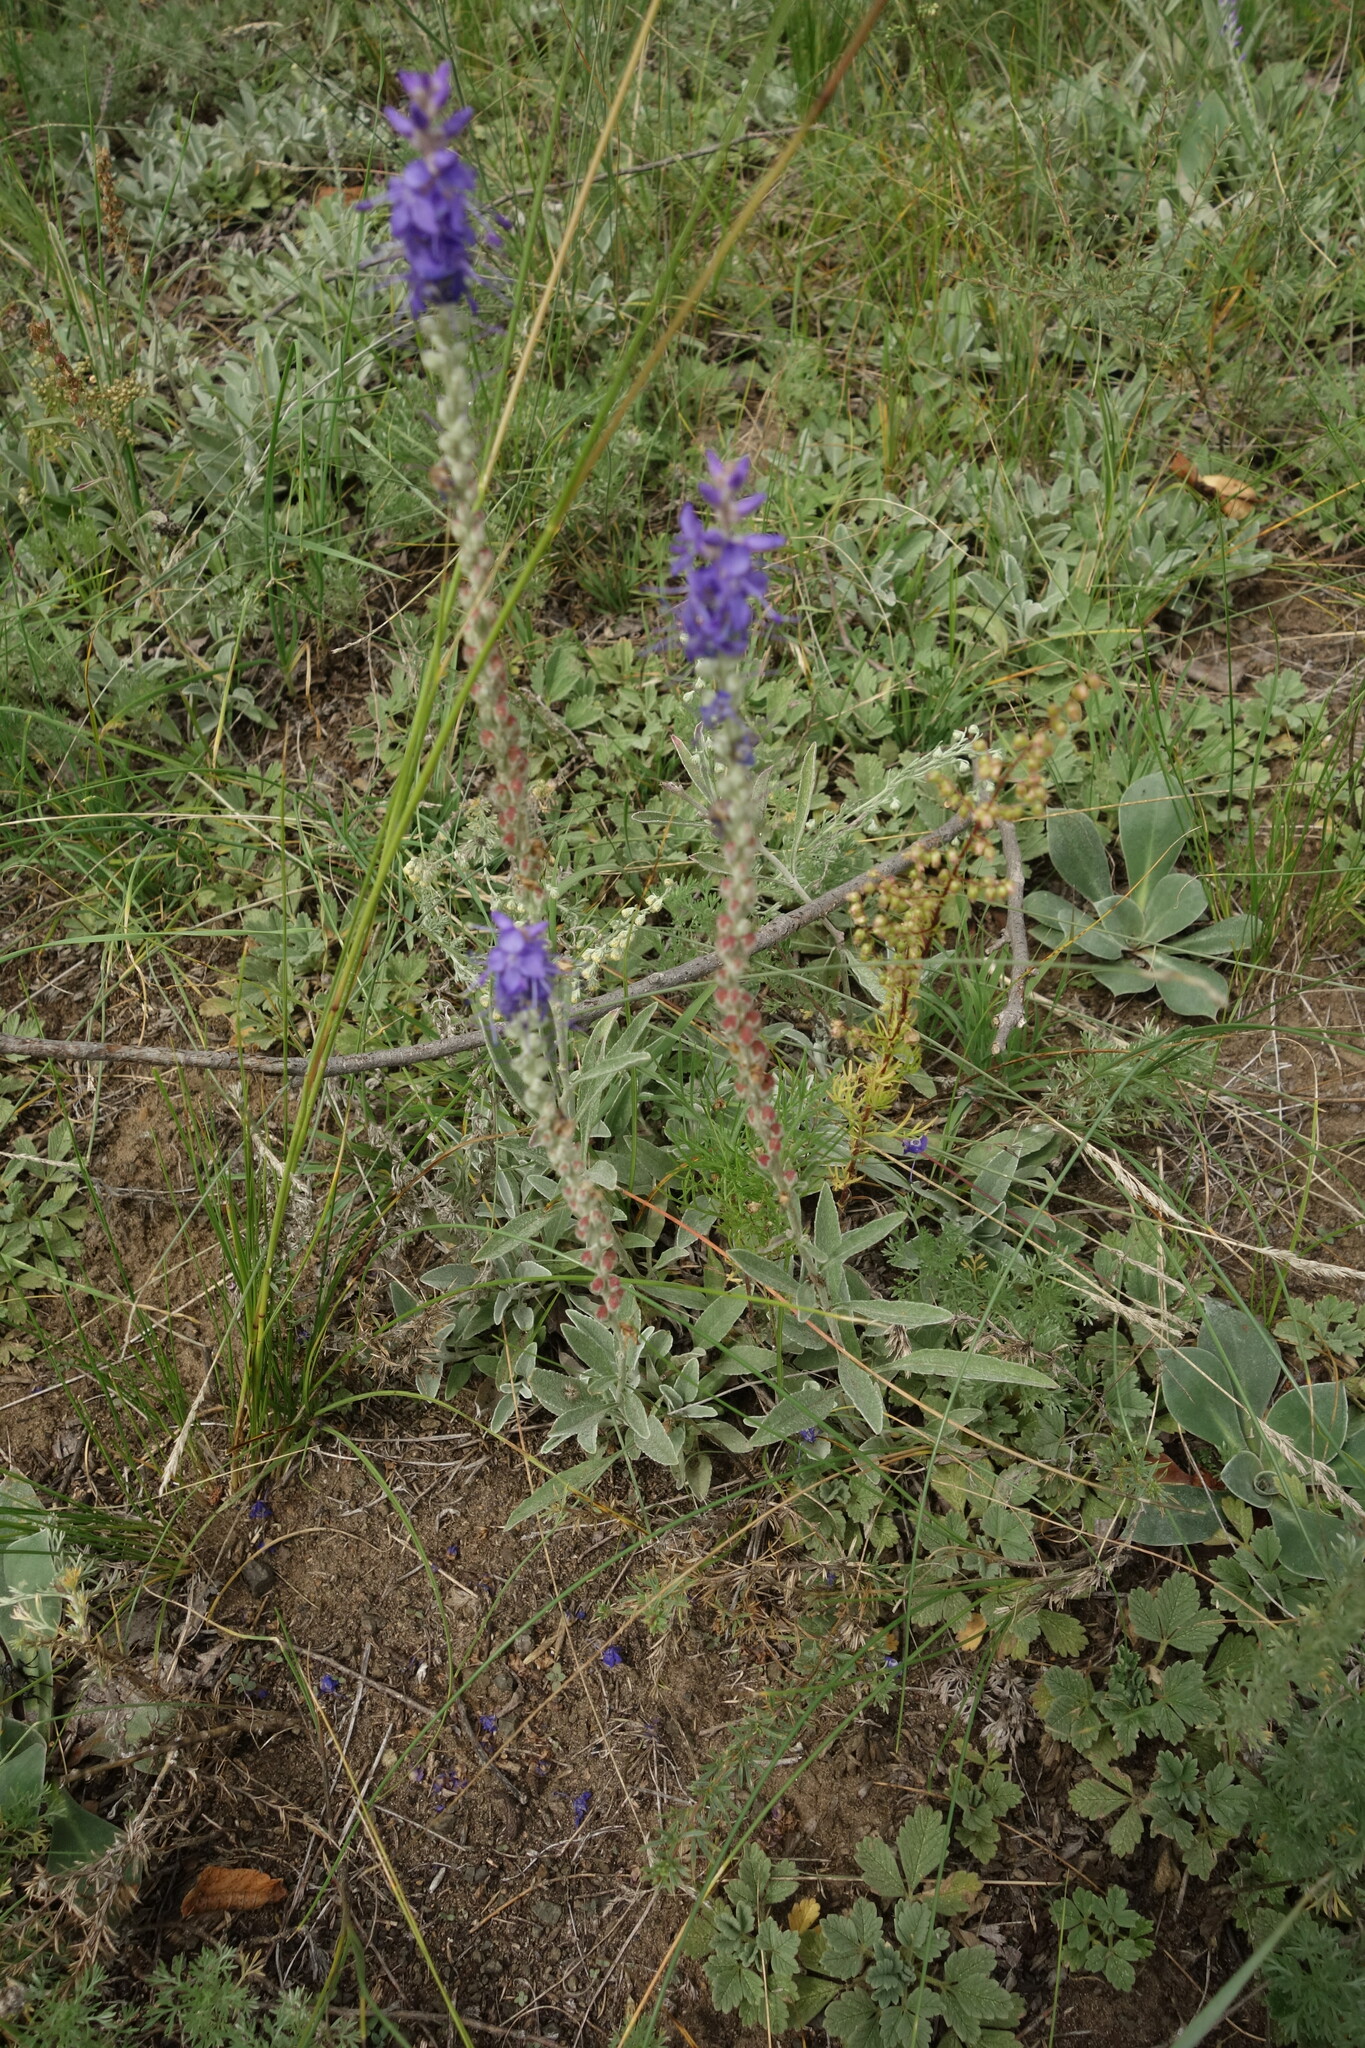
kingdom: Plantae
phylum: Tracheophyta
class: Magnoliopsida
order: Lamiales
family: Plantaginaceae
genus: Veronica
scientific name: Veronica incana
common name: Silver speedwell
